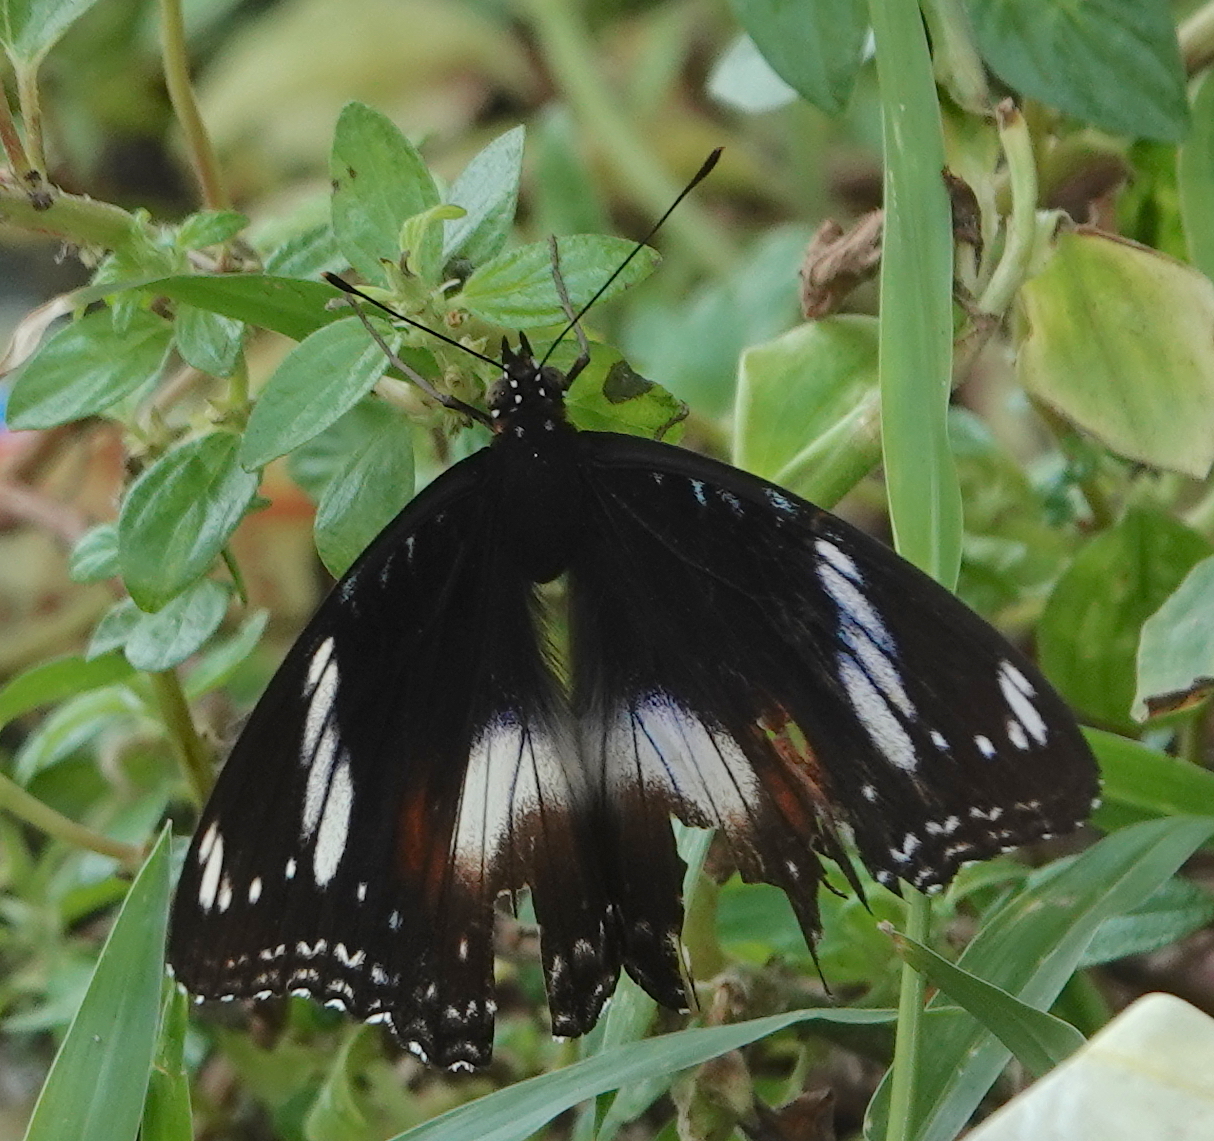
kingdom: Animalia
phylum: Arthropoda
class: Insecta
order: Lepidoptera
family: Nymphalidae
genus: Hypolimnas
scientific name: Hypolimnas bolina
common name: Great eggfly
